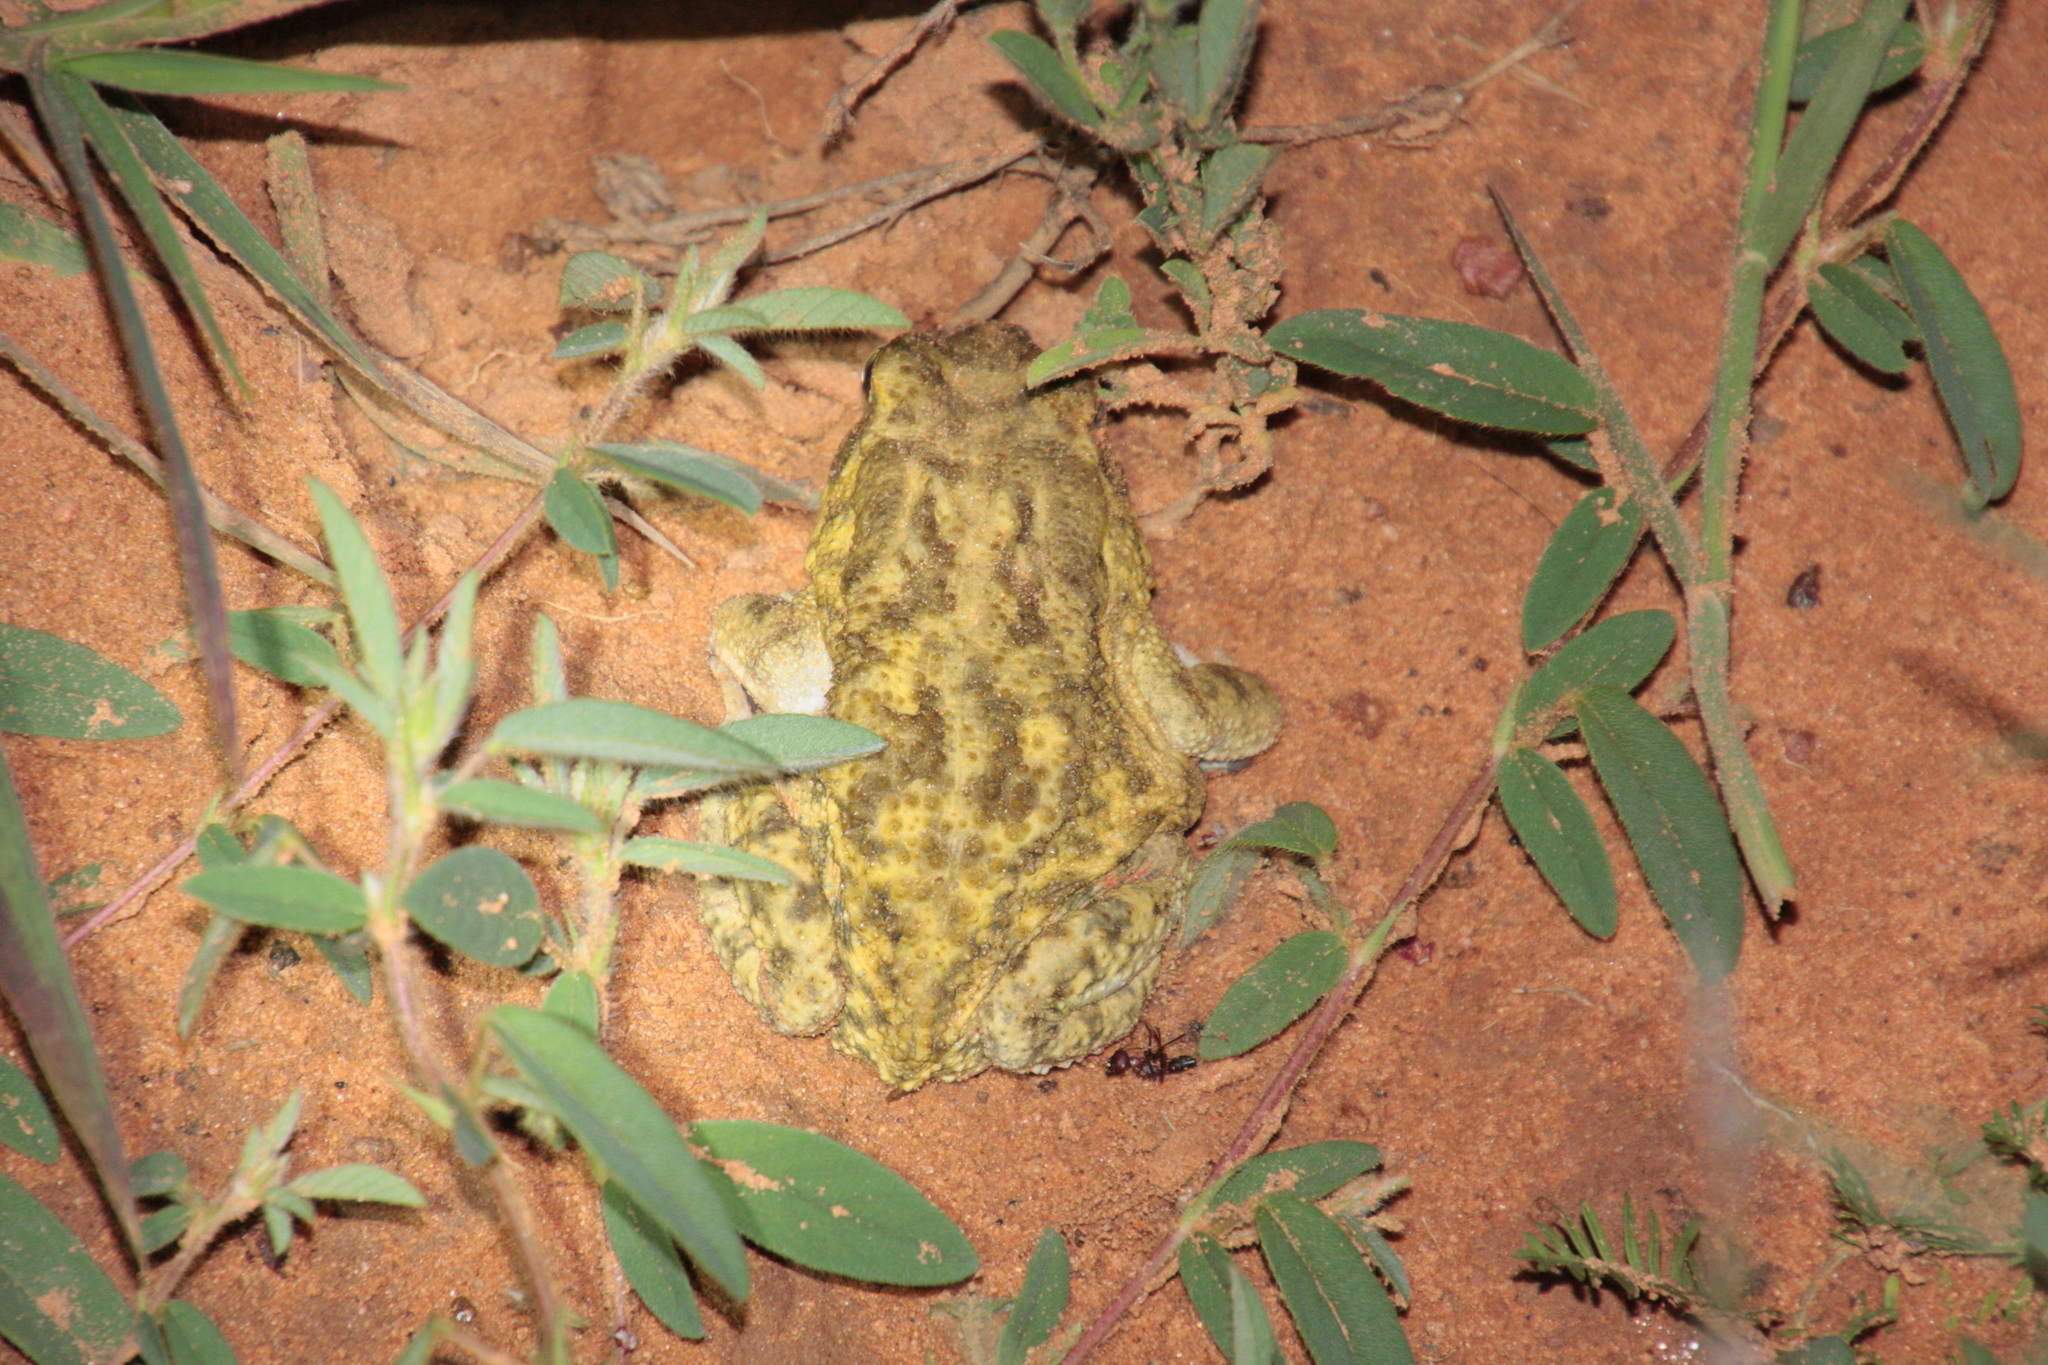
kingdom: Animalia
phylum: Chordata
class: Amphibia
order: Anura
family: Bufonidae
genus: Sclerophrys
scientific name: Sclerophrys regularis
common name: African common toad
